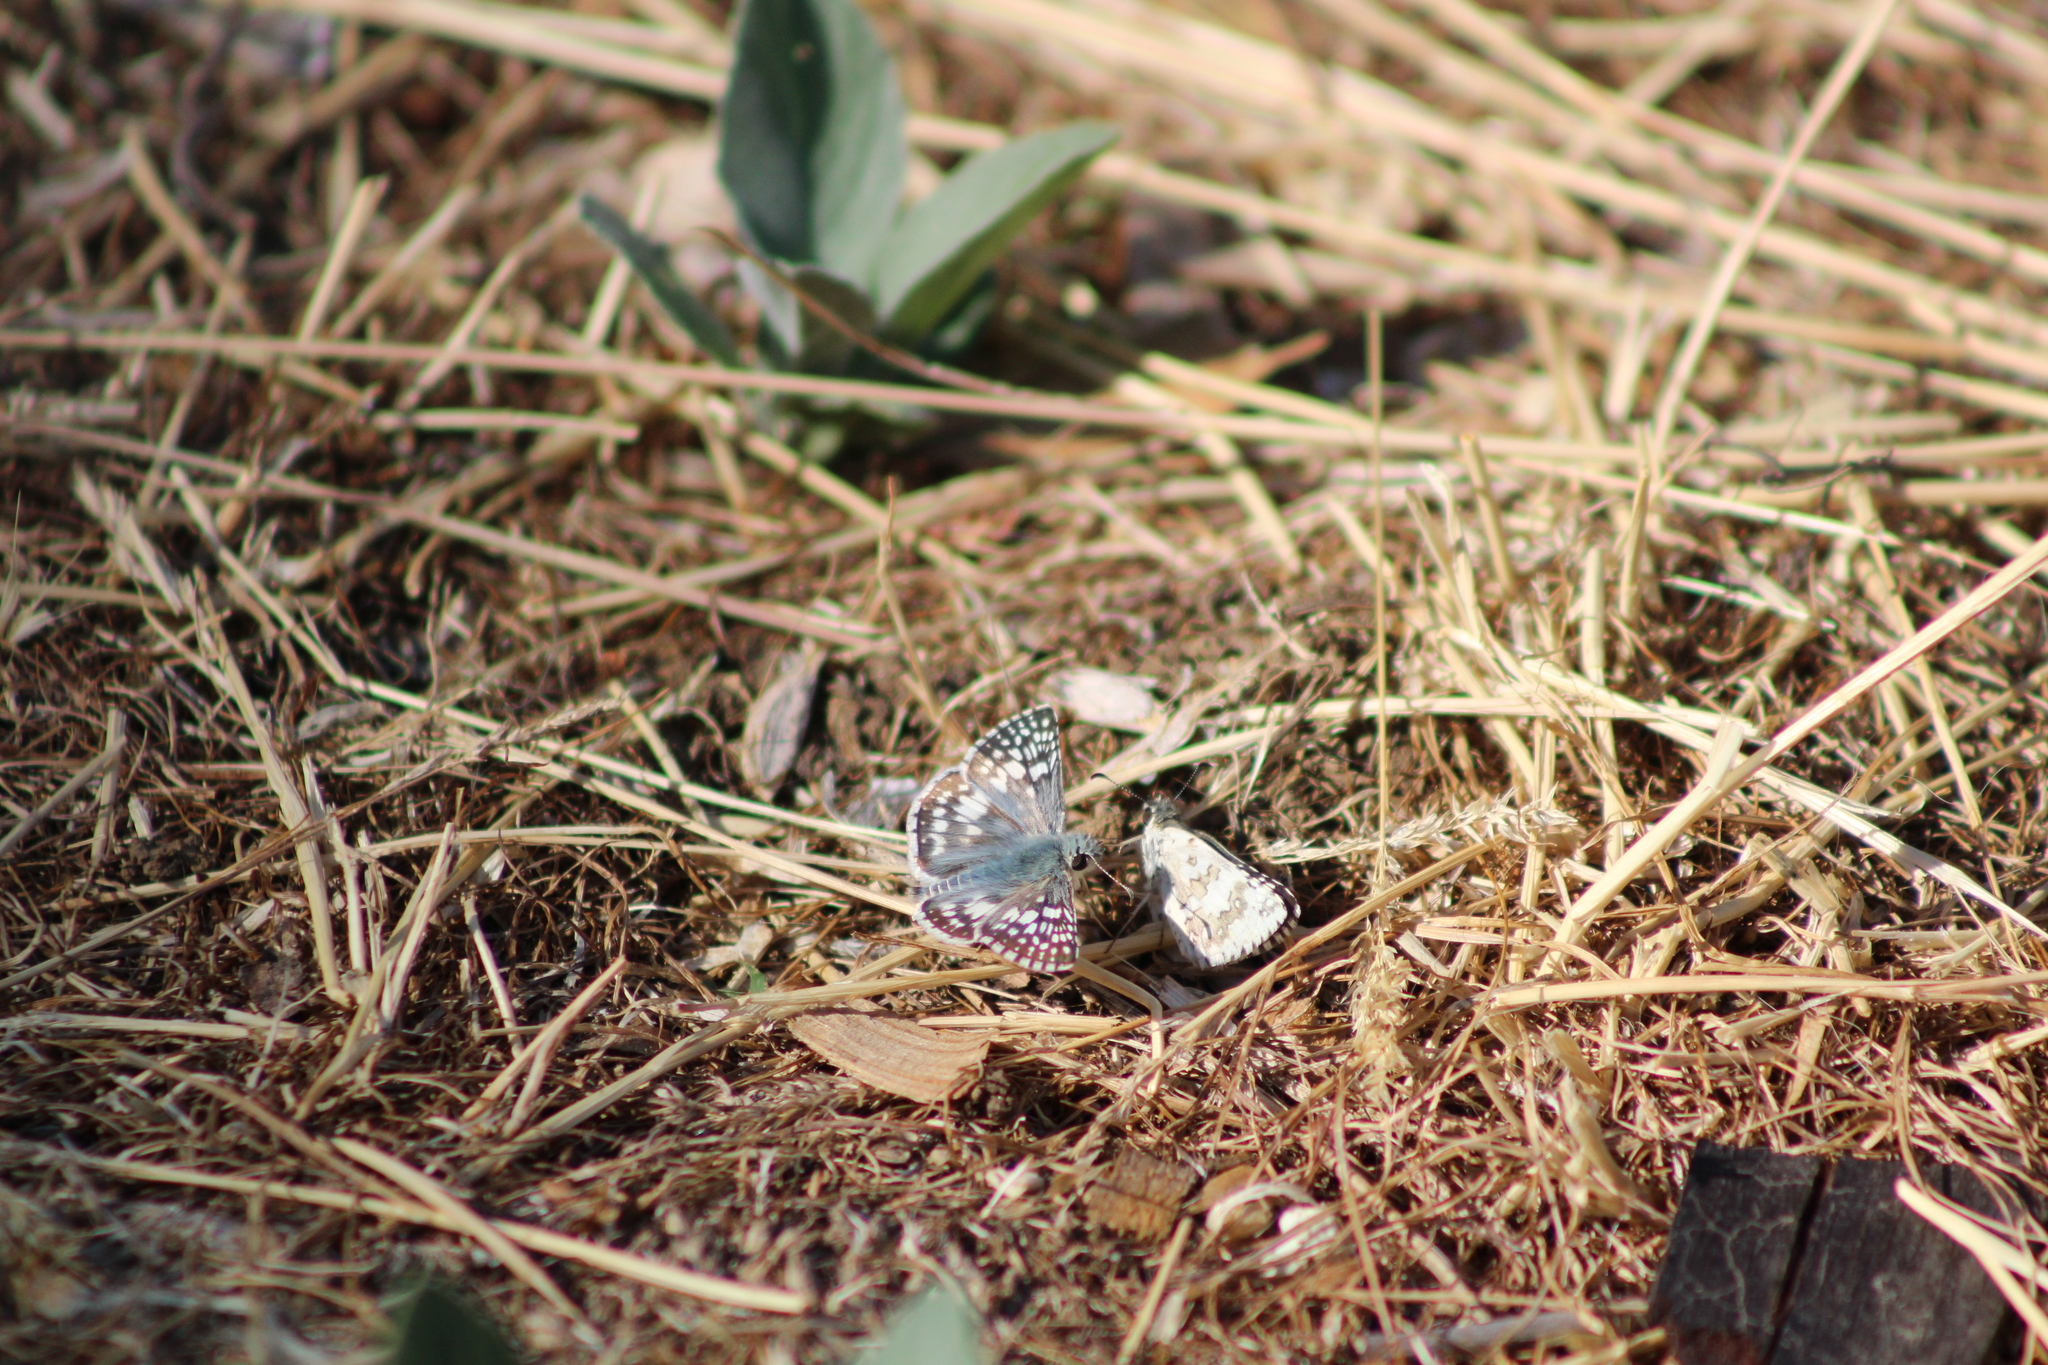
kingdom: Animalia
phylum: Arthropoda
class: Insecta
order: Lepidoptera
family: Hesperiidae
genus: Burnsius
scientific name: Burnsius communis
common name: Common checkered-skipper
